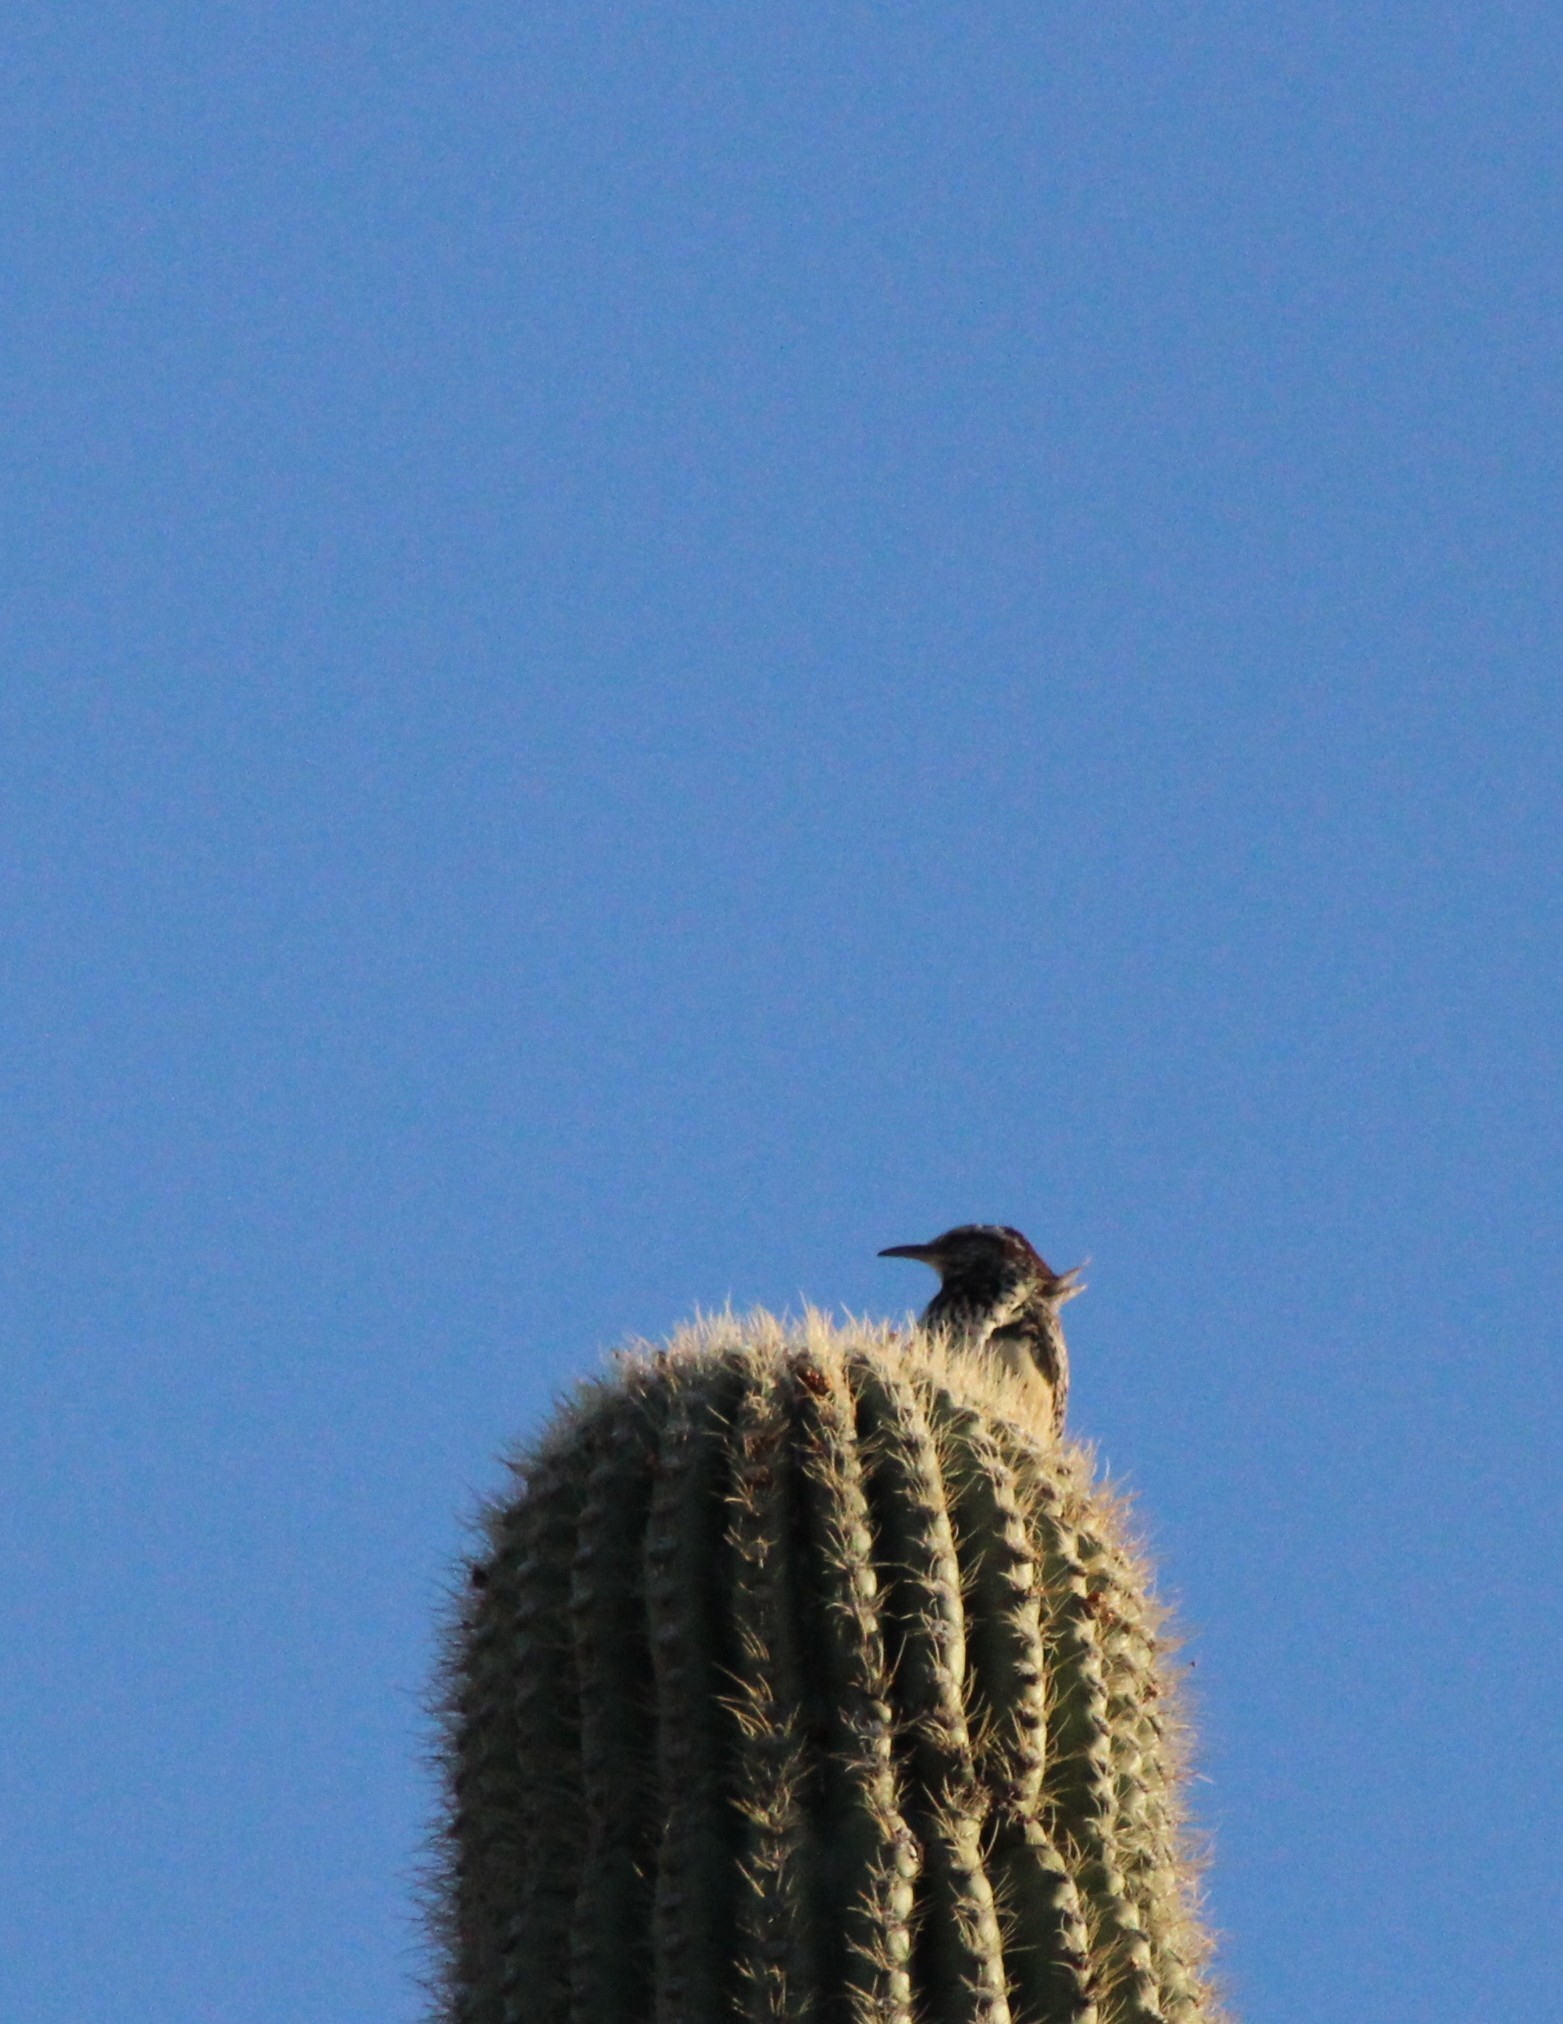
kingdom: Animalia
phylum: Chordata
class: Aves
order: Passeriformes
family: Troglodytidae
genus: Campylorhynchus
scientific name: Campylorhynchus brunneicapillus
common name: Cactus wren
